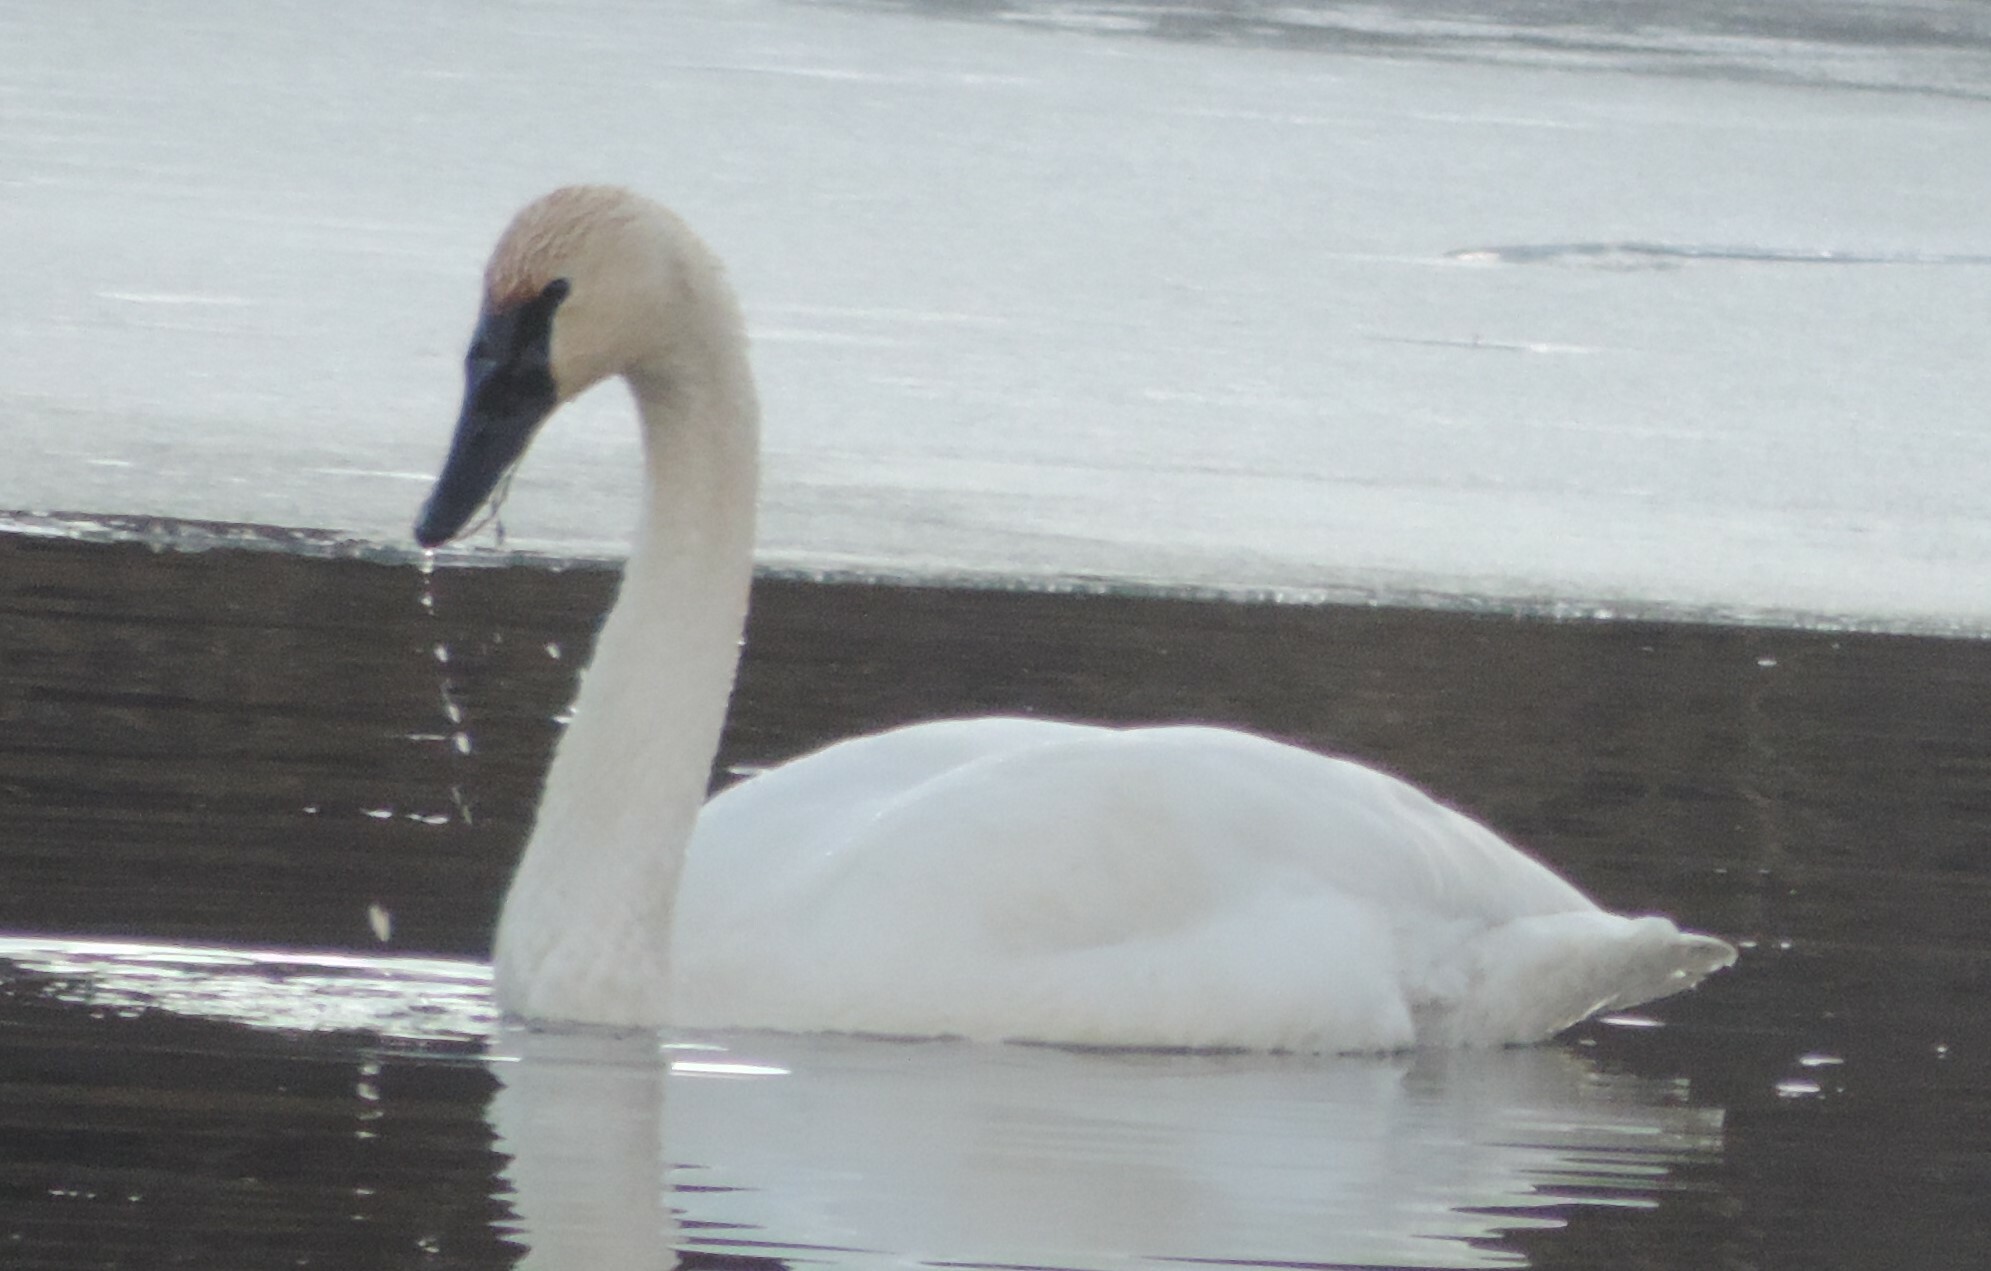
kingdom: Animalia
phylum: Chordata
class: Aves
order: Anseriformes
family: Anatidae
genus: Cygnus
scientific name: Cygnus buccinator
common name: Trumpeter swan
